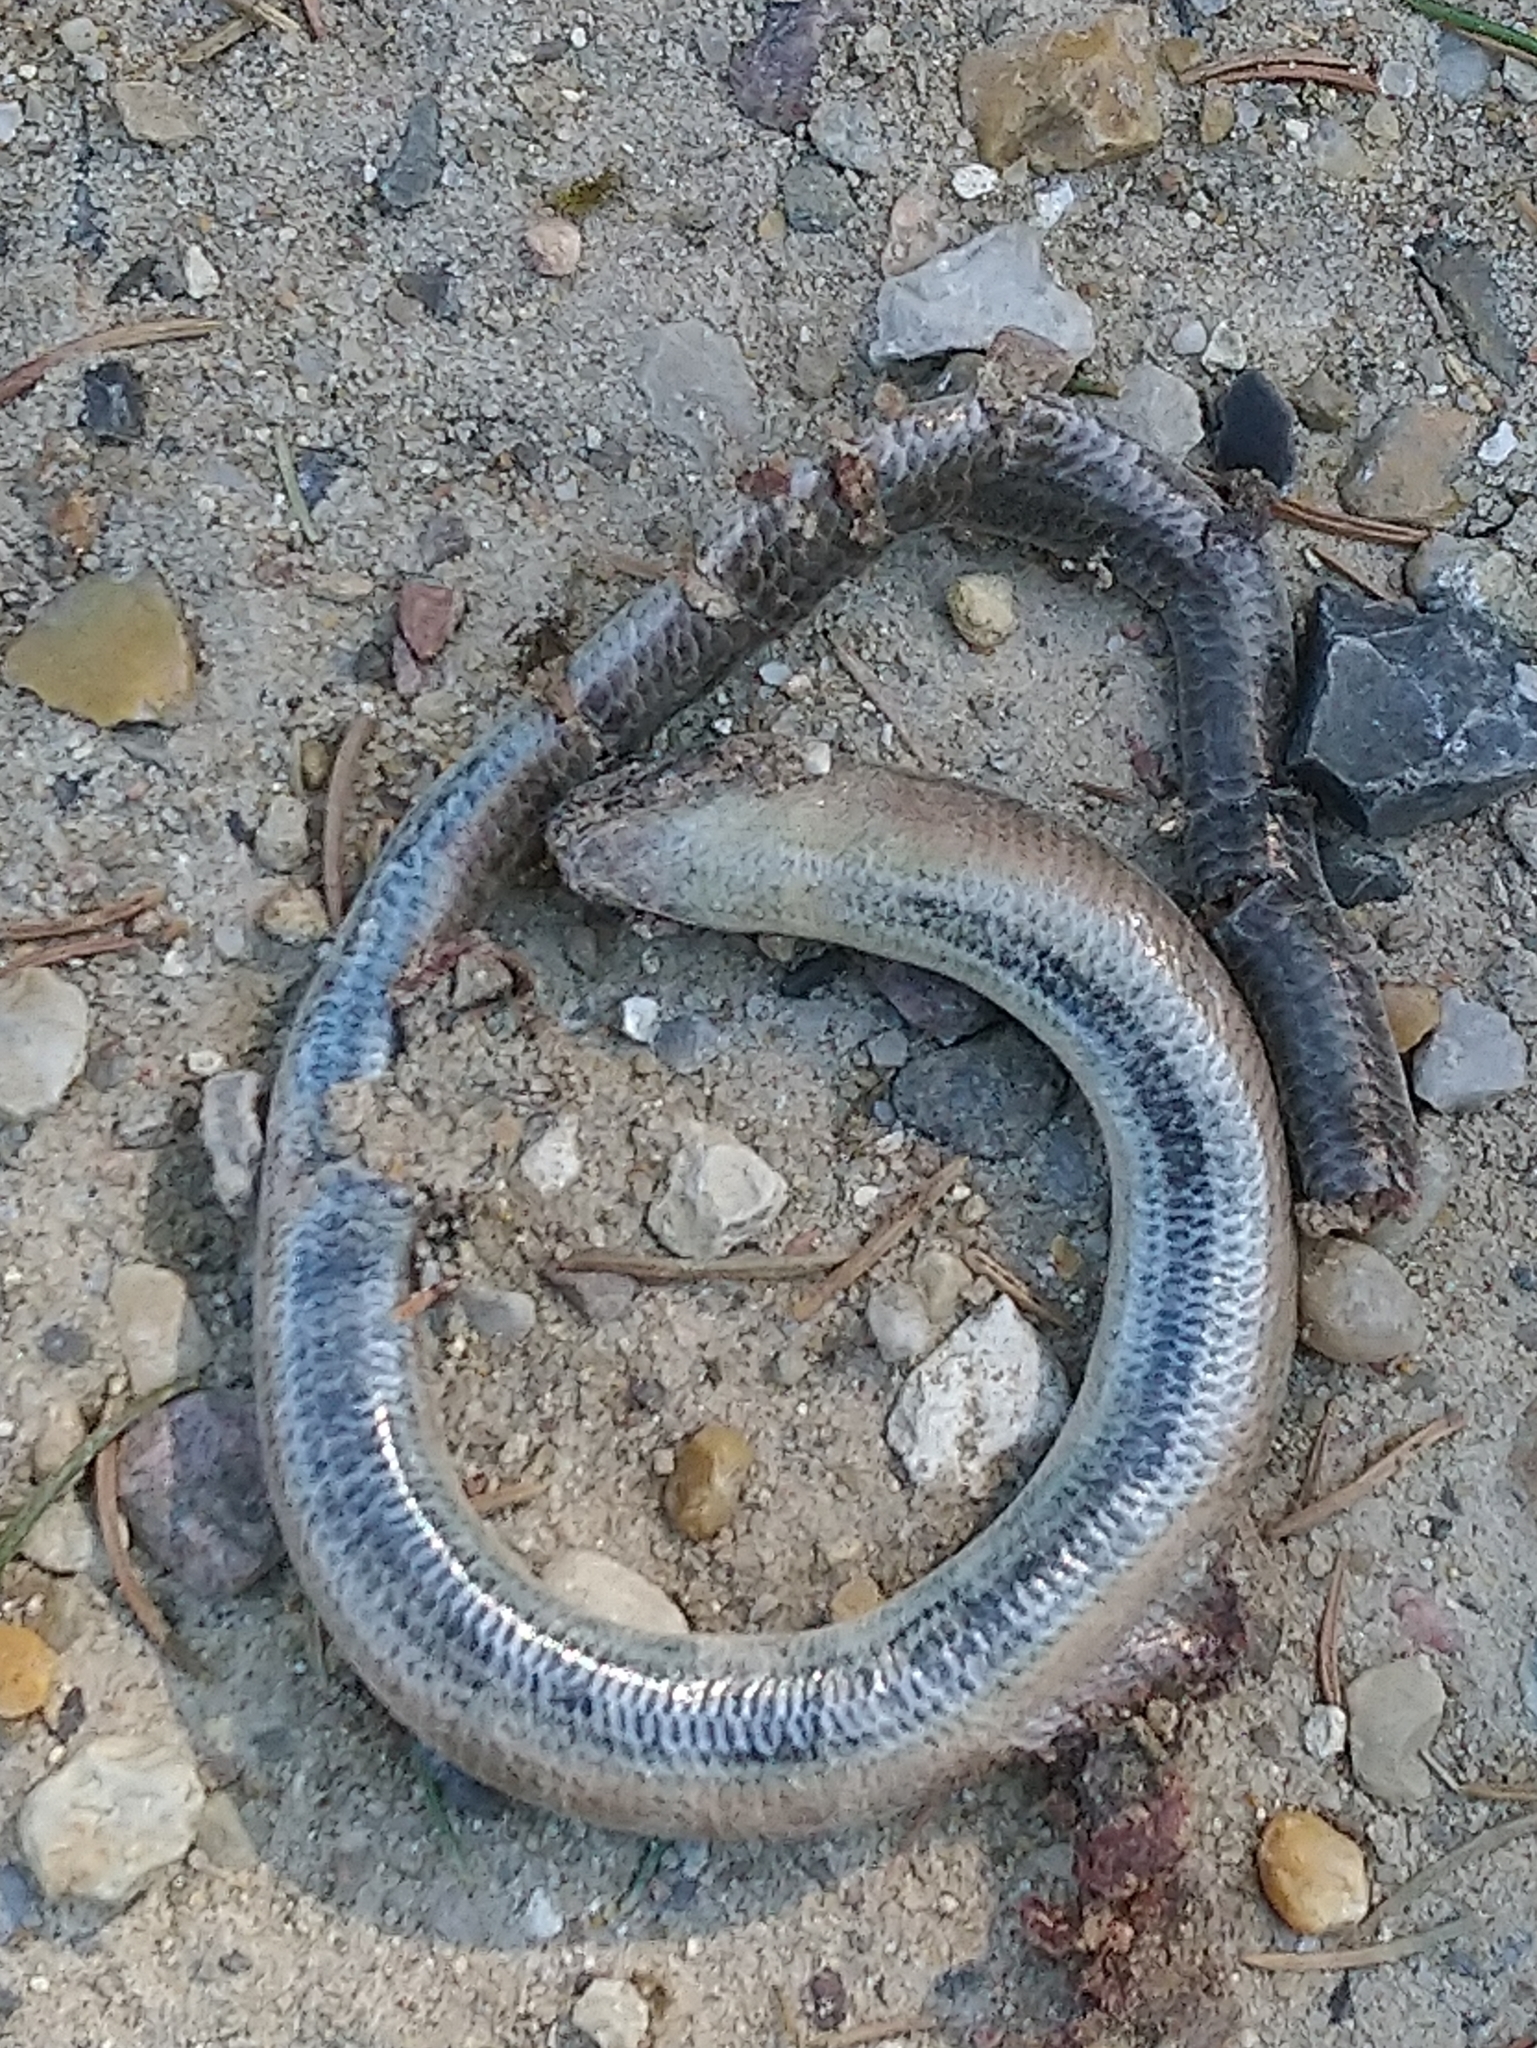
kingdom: Animalia
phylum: Chordata
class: Squamata
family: Anguidae
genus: Anguis
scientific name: Anguis fragilis
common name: Slow worm
